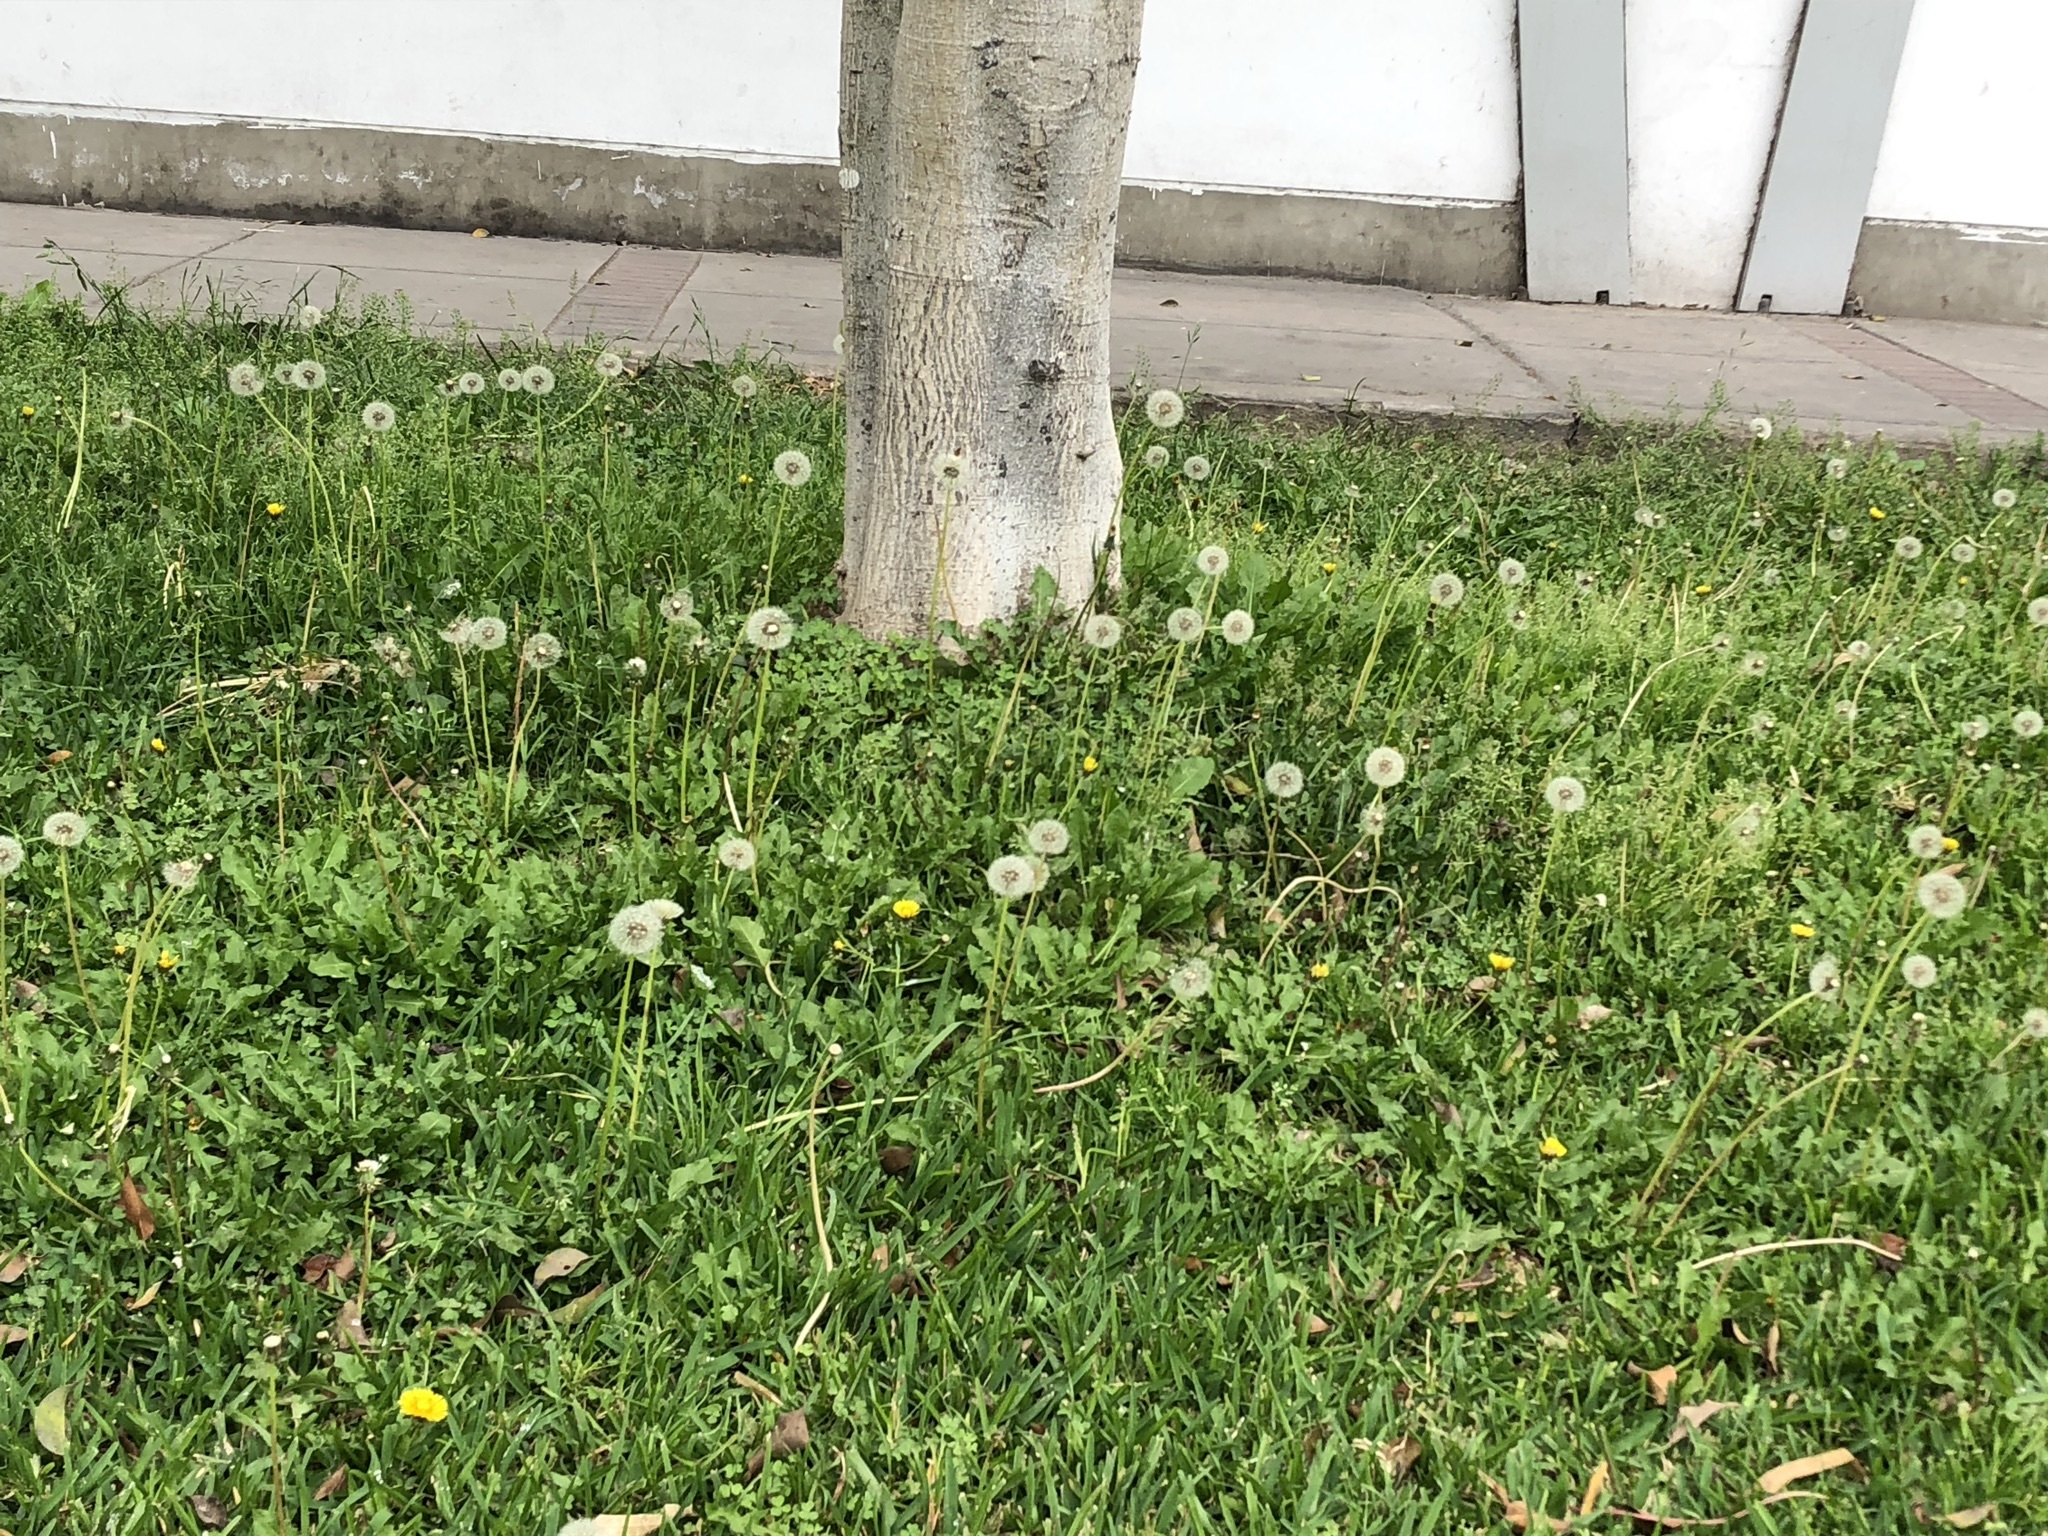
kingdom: Plantae
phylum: Tracheophyta
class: Magnoliopsida
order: Asterales
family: Asteraceae
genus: Taraxacum
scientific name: Taraxacum officinale
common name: Common dandelion
